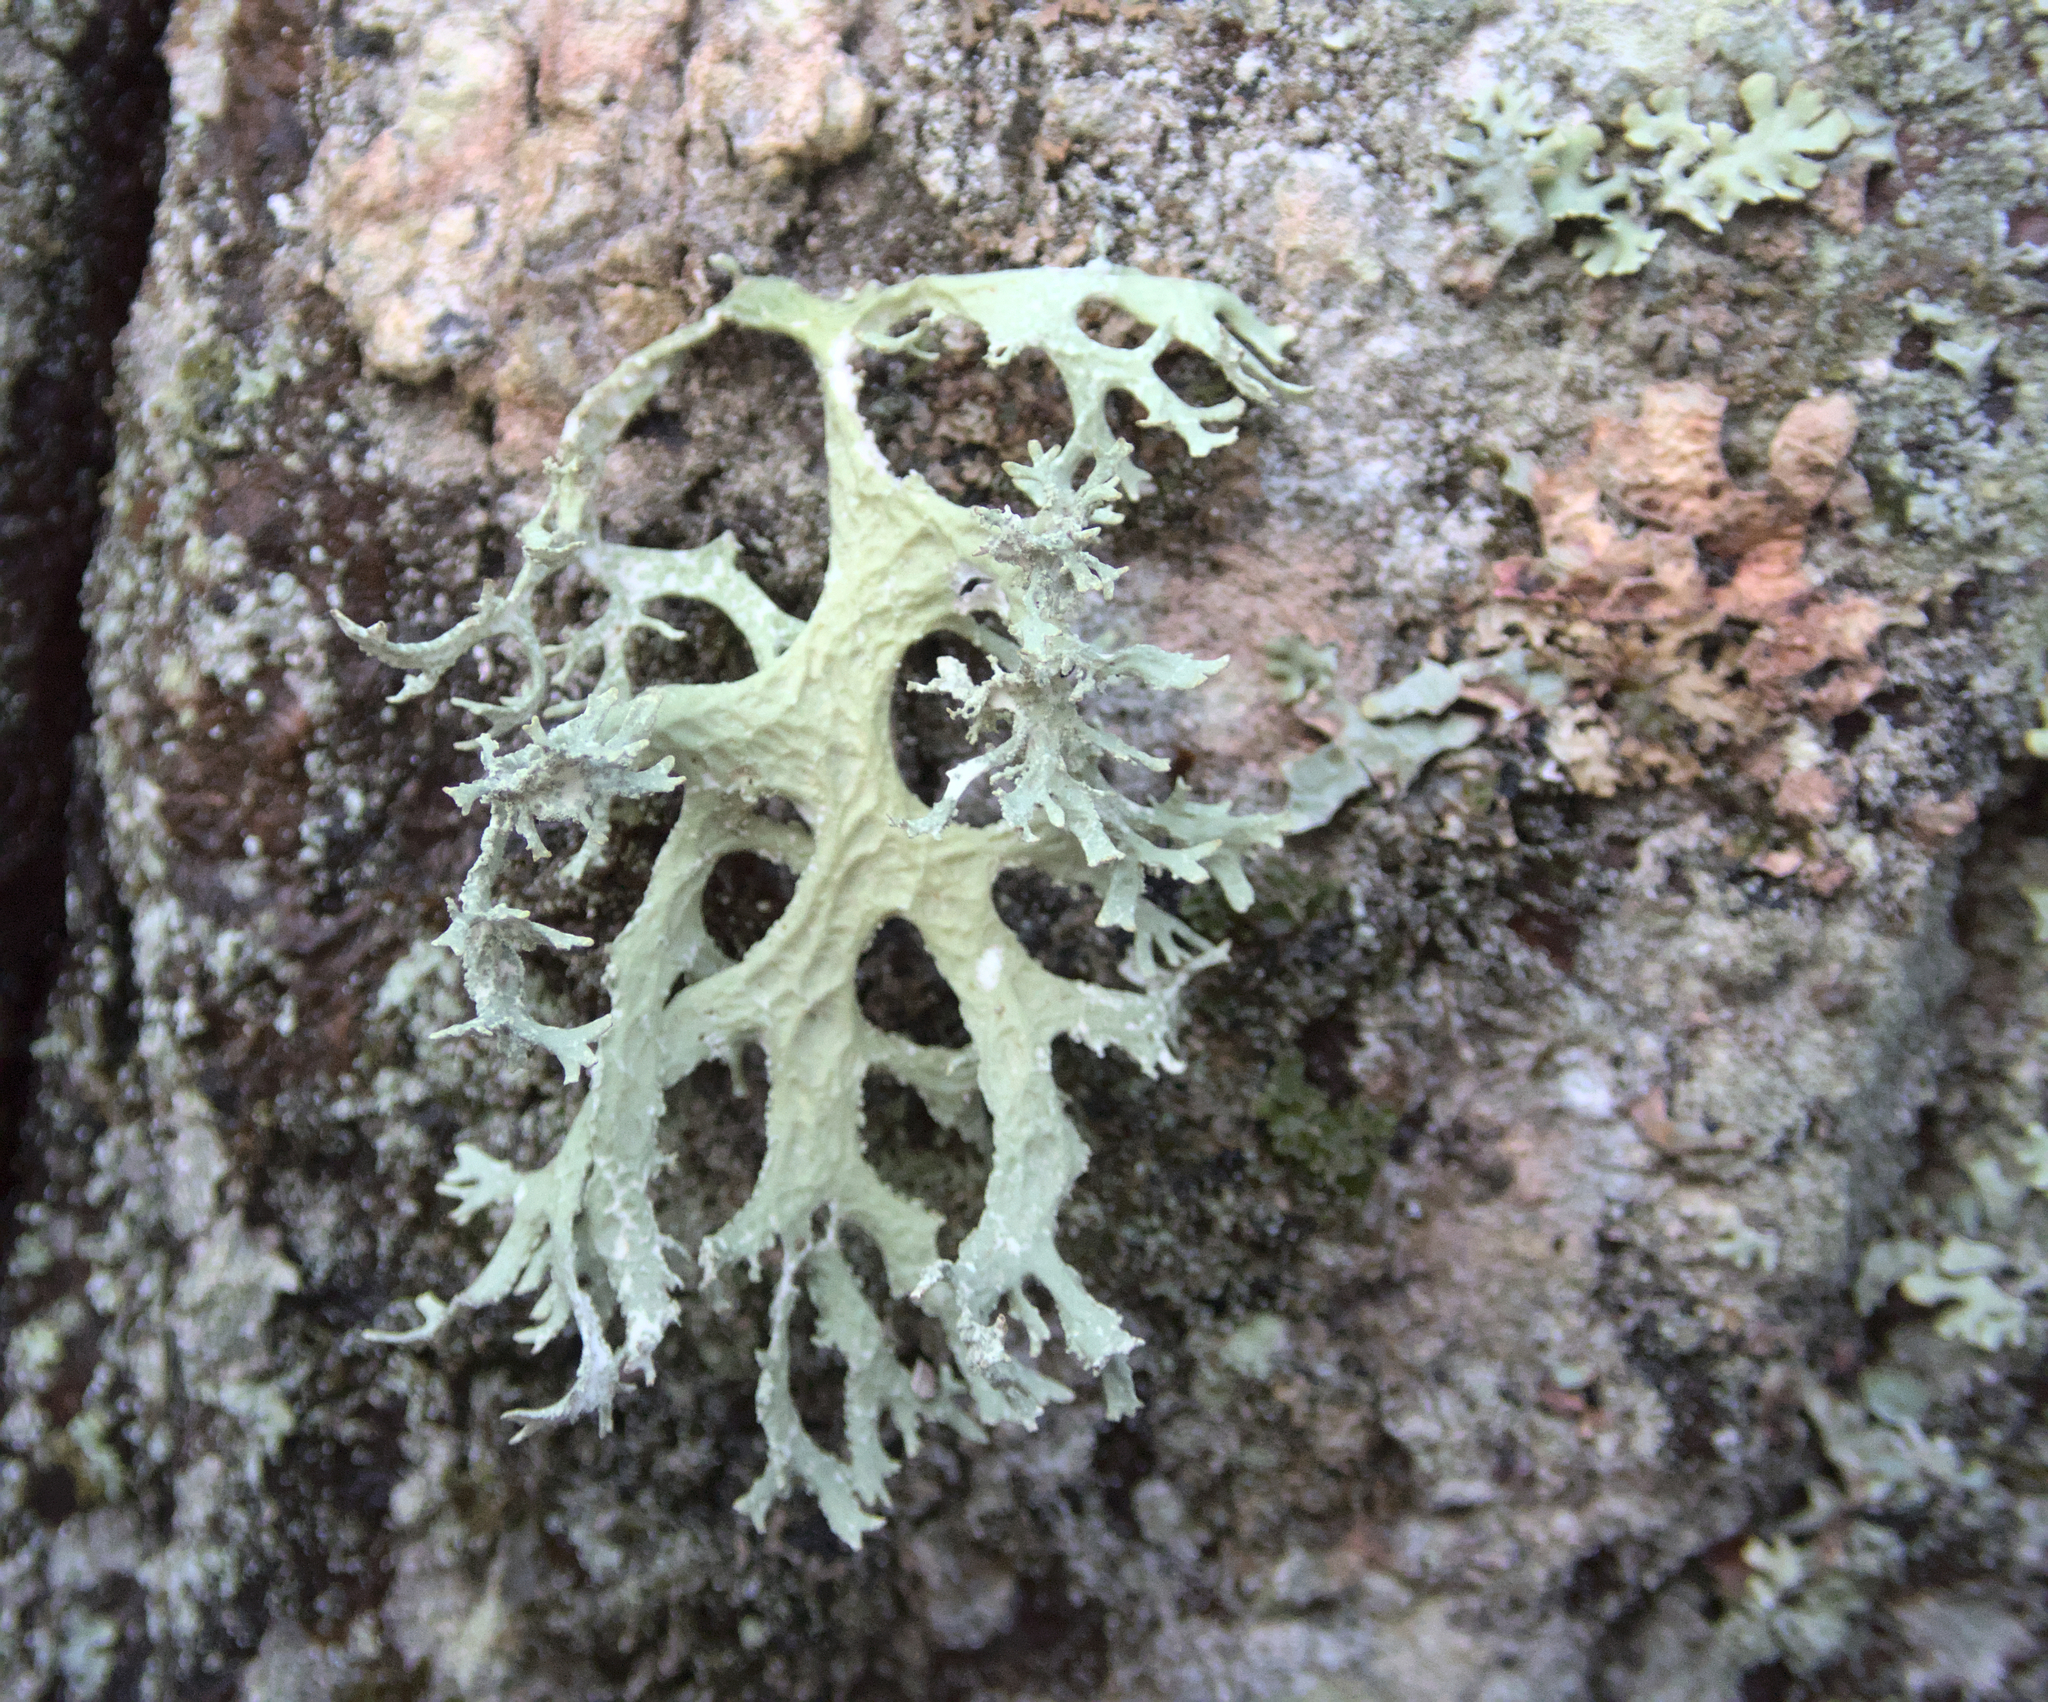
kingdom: Fungi
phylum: Ascomycota
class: Lecanoromycetes
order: Lecanorales
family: Parmeliaceae
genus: Evernia
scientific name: Evernia prunastri
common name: Oak moss
